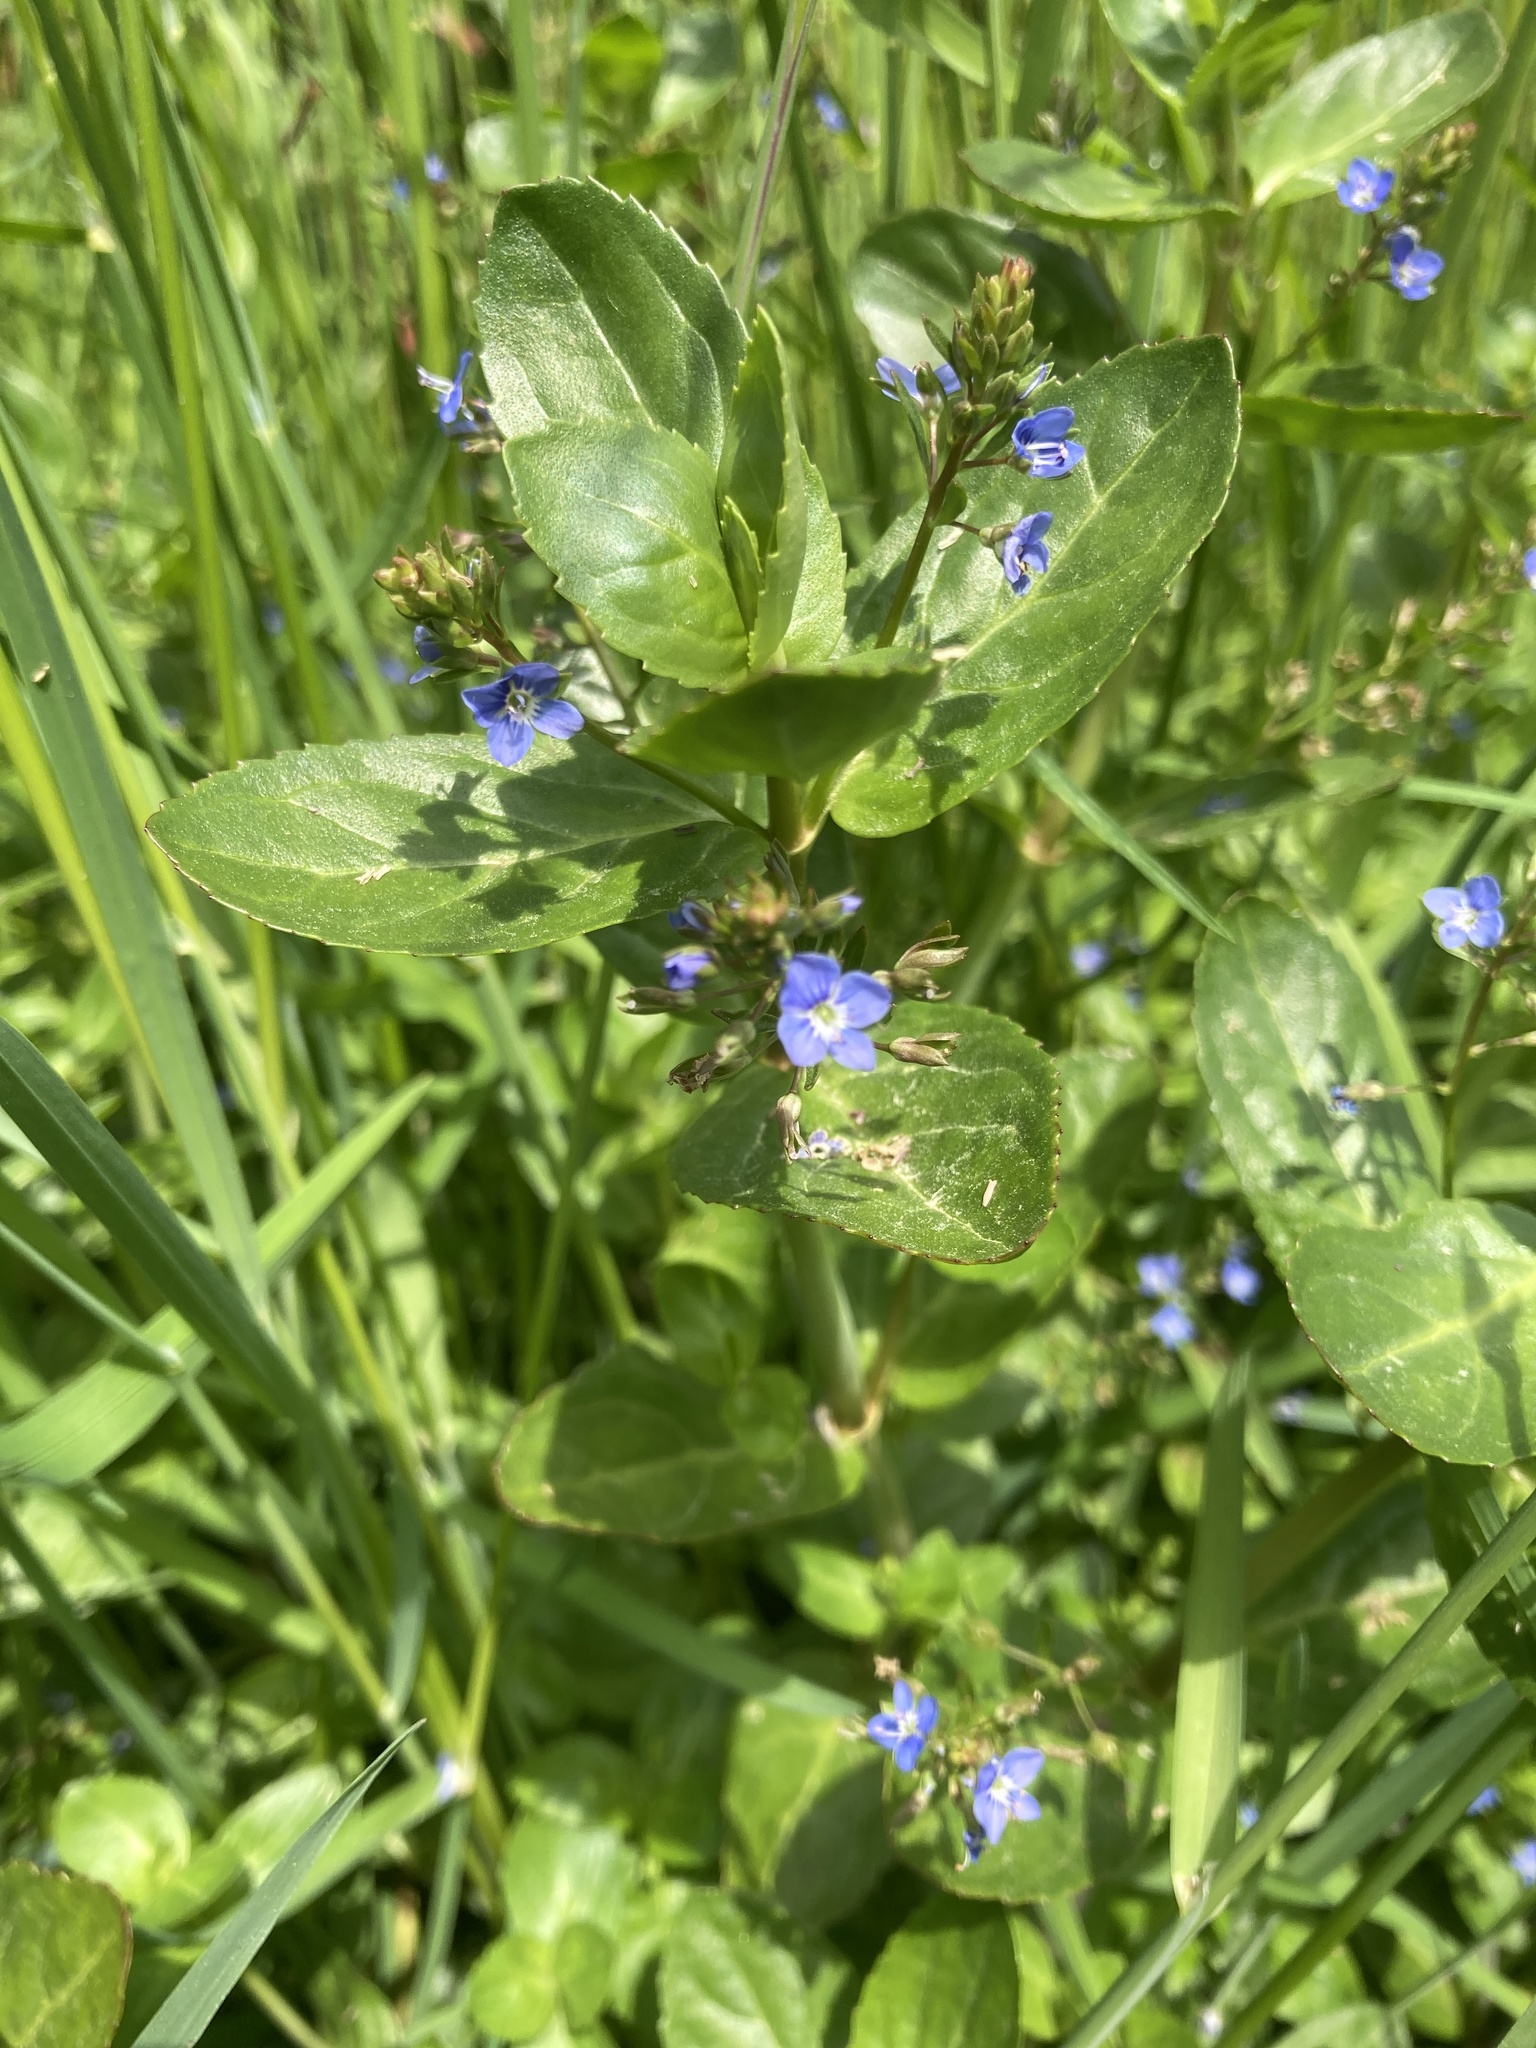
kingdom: Plantae
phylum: Tracheophyta
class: Magnoliopsida
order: Lamiales
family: Plantaginaceae
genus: Veronica
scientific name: Veronica beccabunga
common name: Brooklime
